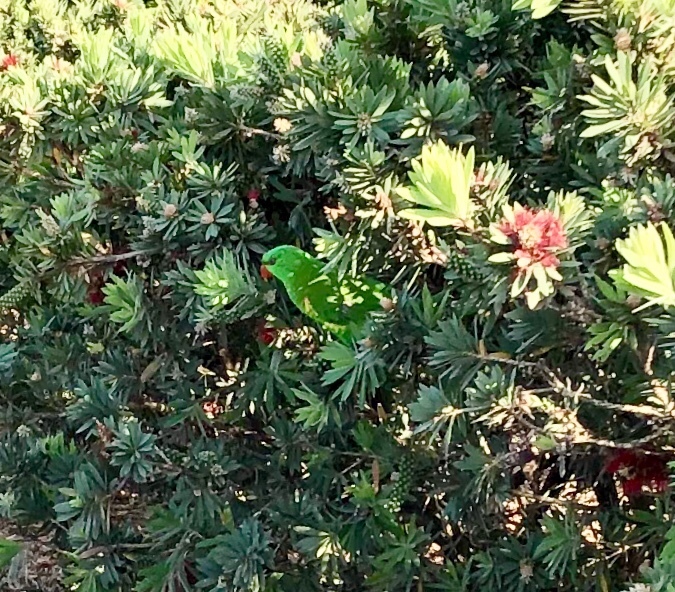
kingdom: Animalia
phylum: Chordata
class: Aves
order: Psittaciformes
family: Psittacidae
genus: Trichoglossus
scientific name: Trichoglossus chlorolepidotus
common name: Scaly-breasted lorikeet
